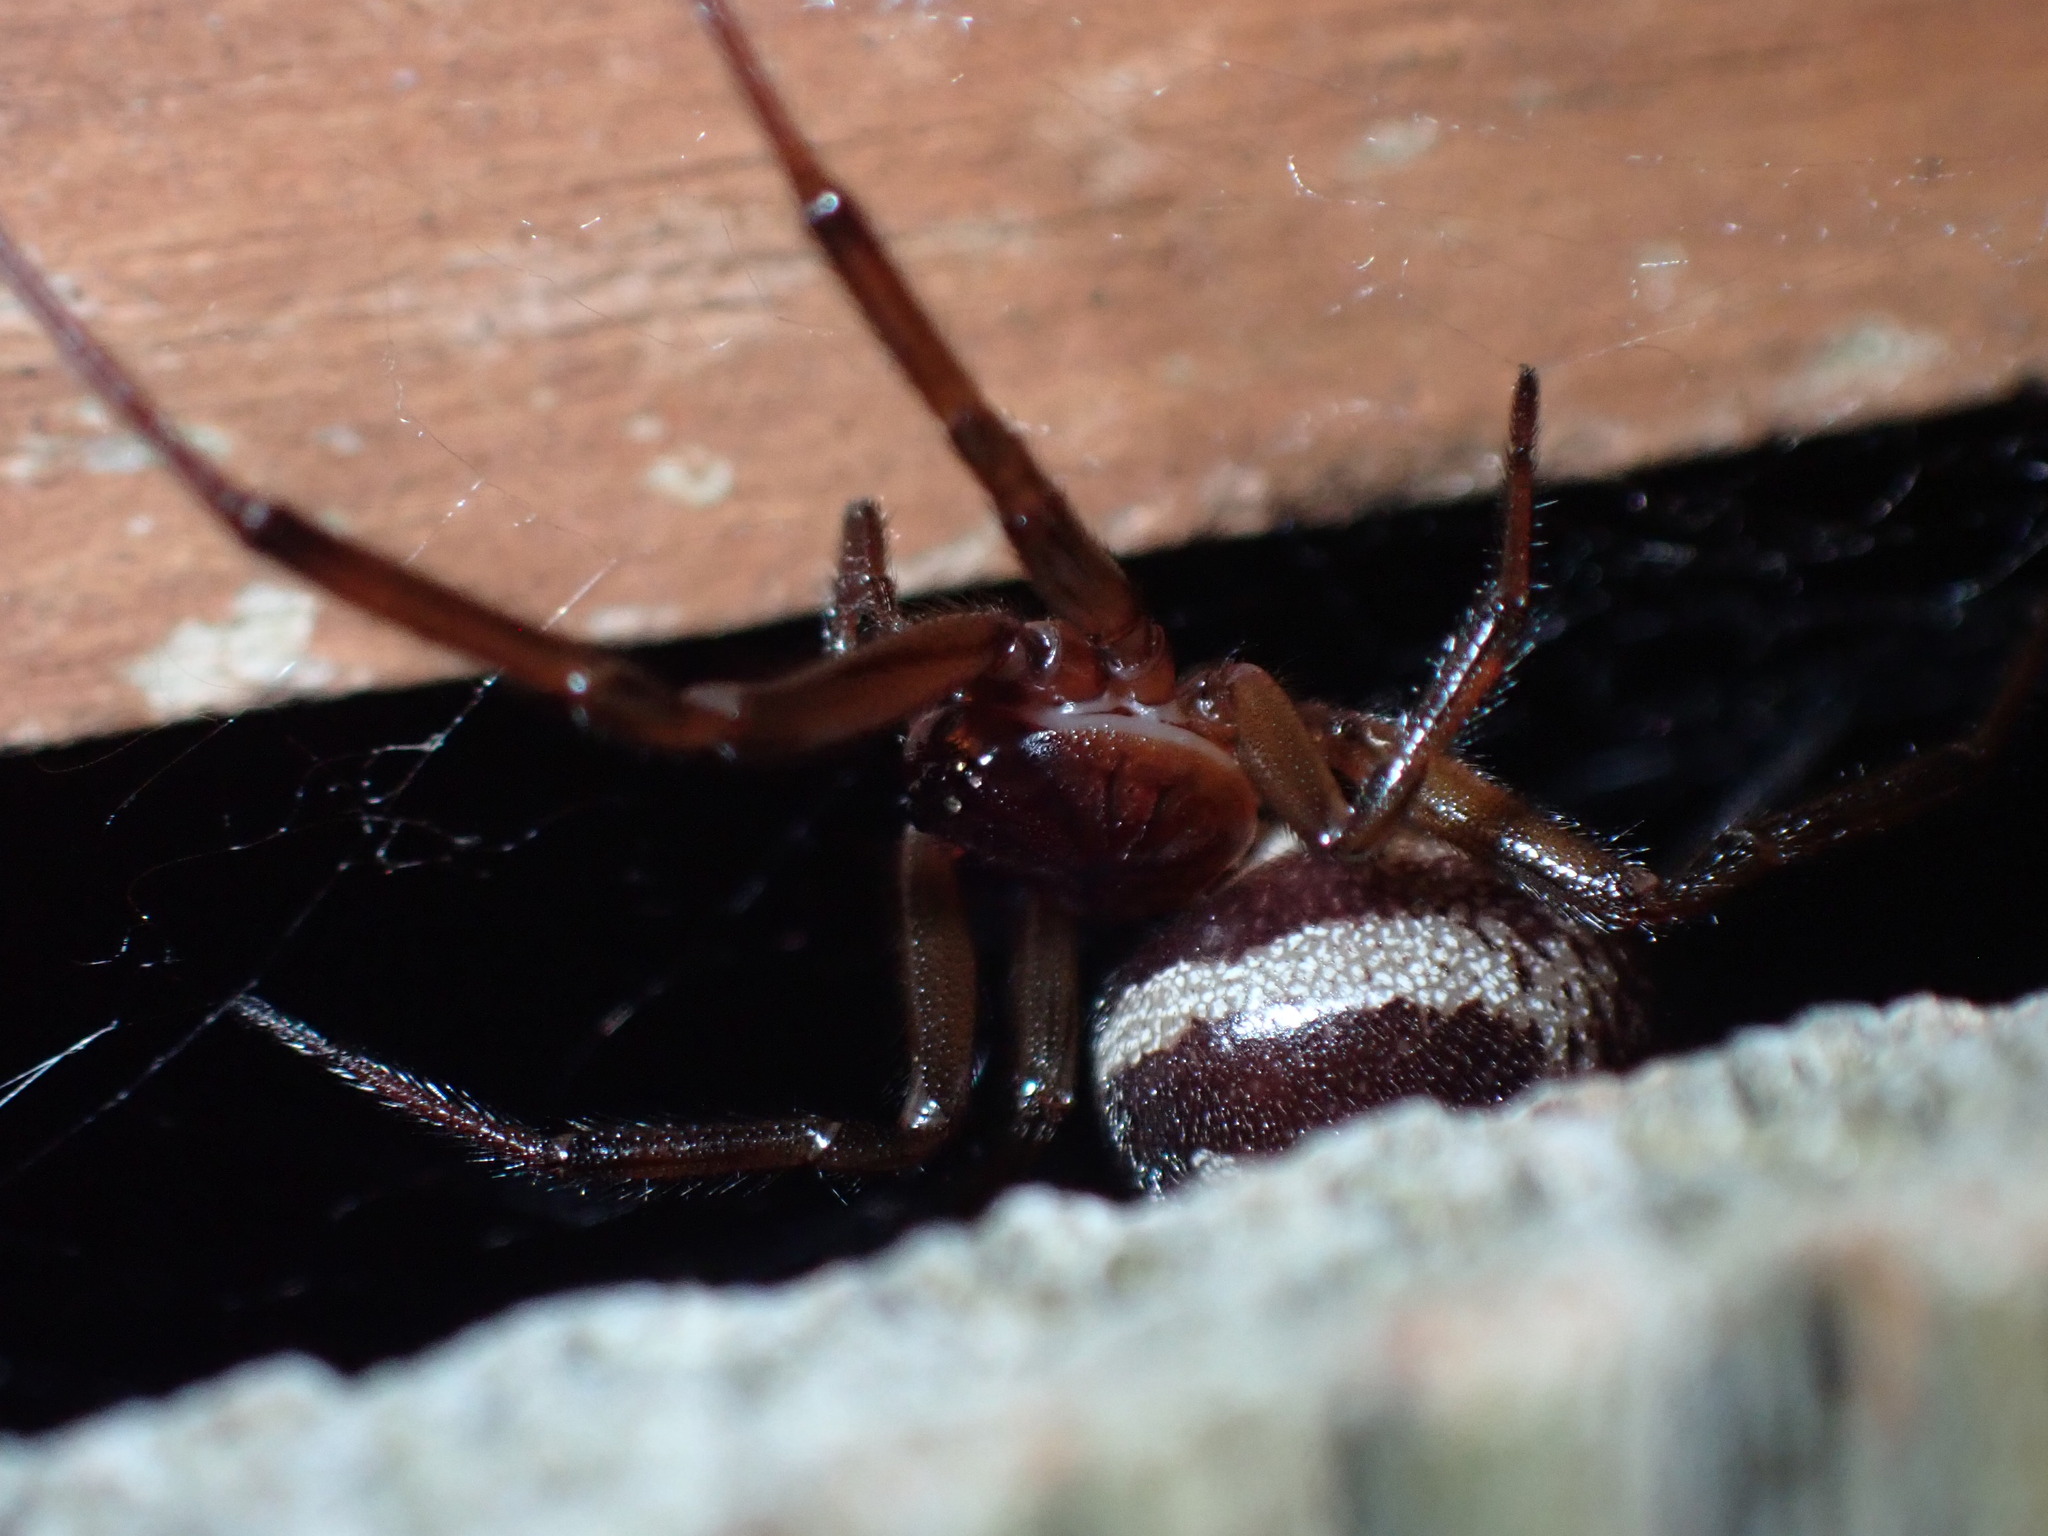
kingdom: Animalia
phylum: Arthropoda
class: Arachnida
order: Araneae
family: Theridiidae
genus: Steatoda
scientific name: Steatoda nobilis
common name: Cobweb weaver
